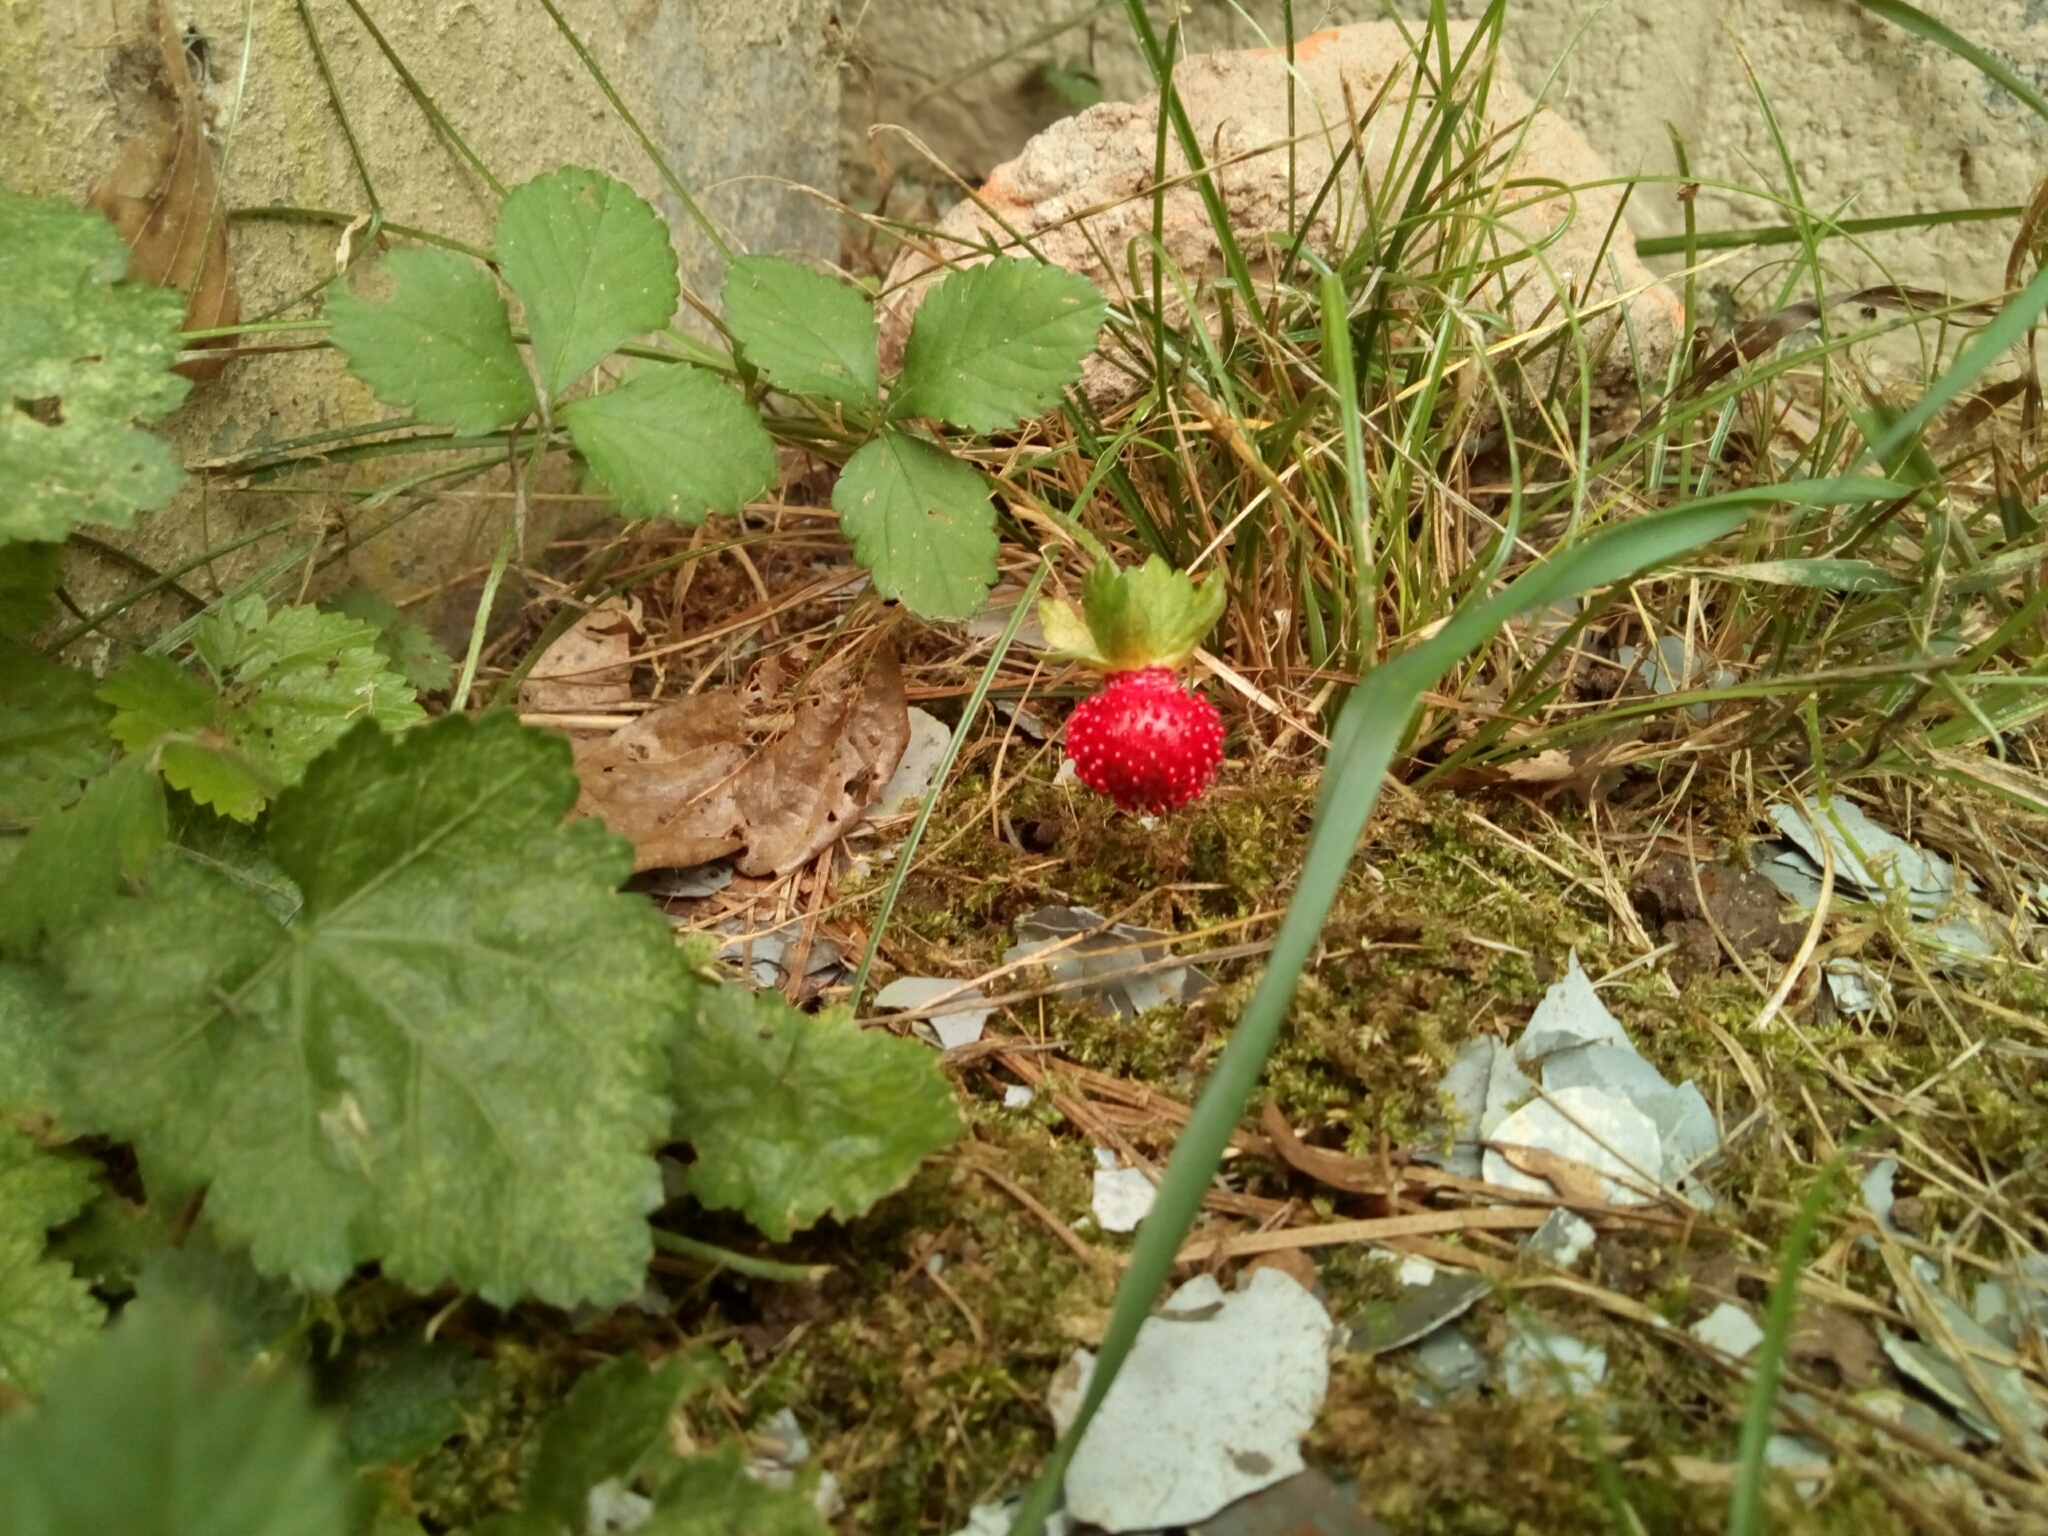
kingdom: Plantae
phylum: Tracheophyta
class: Magnoliopsida
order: Rosales
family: Rosaceae
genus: Potentilla
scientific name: Potentilla indica
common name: Yellow-flowered strawberry
